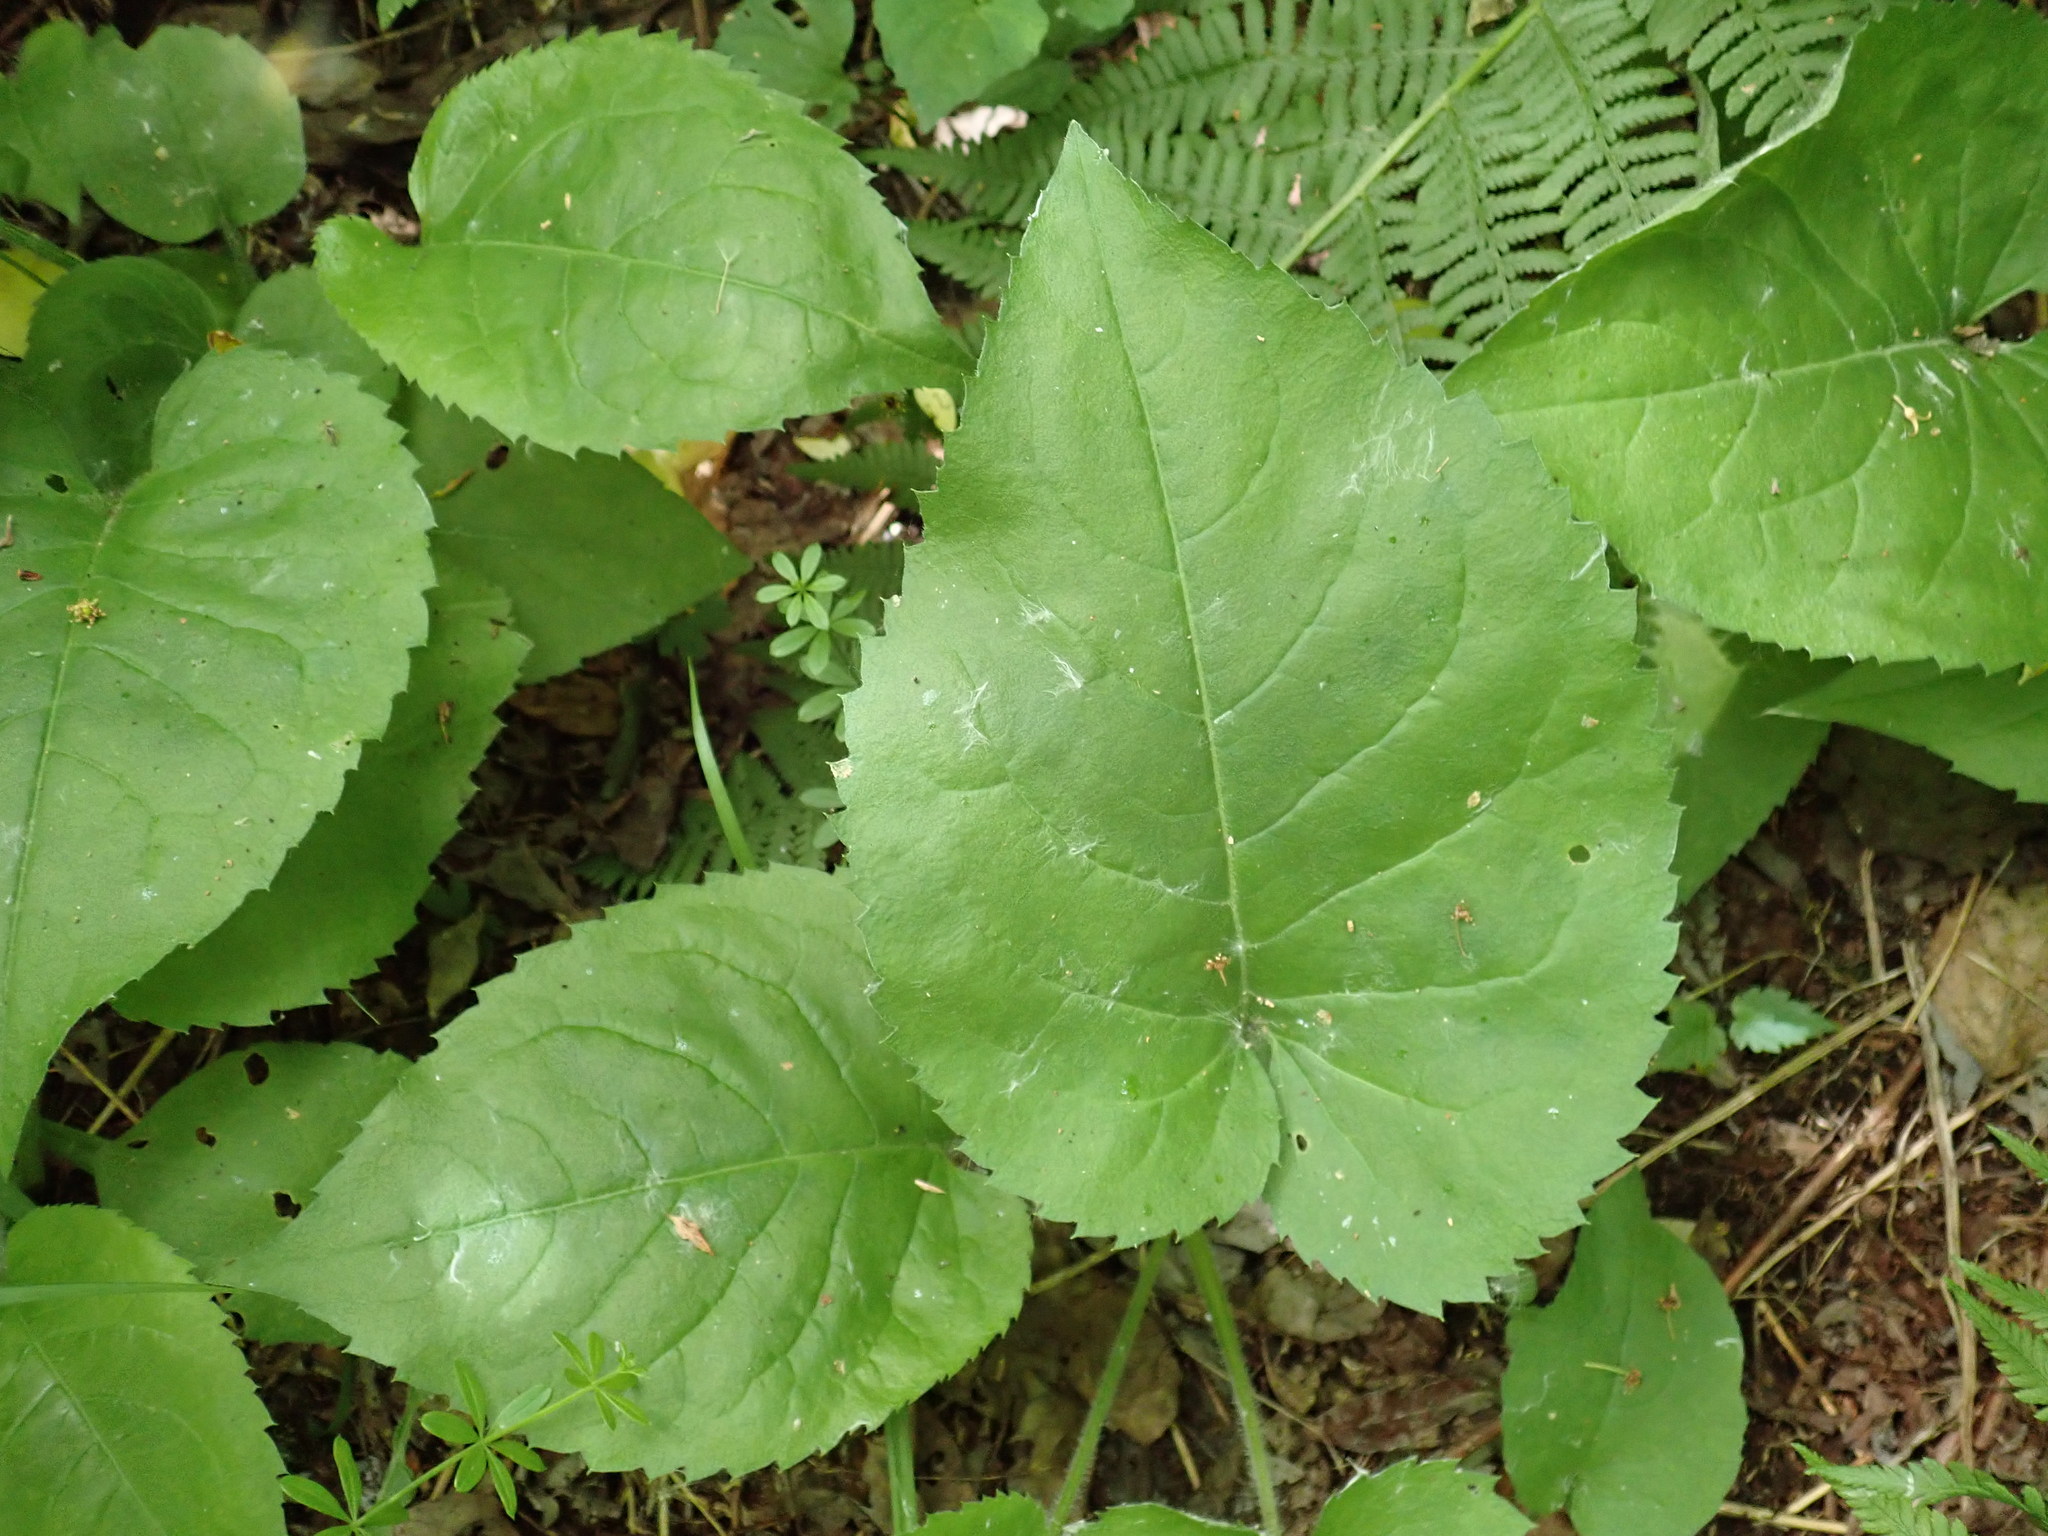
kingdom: Plantae
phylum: Tracheophyta
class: Magnoliopsida
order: Asterales
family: Asteraceae
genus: Eurybia
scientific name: Eurybia macrophylla
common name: Big-leaved aster
